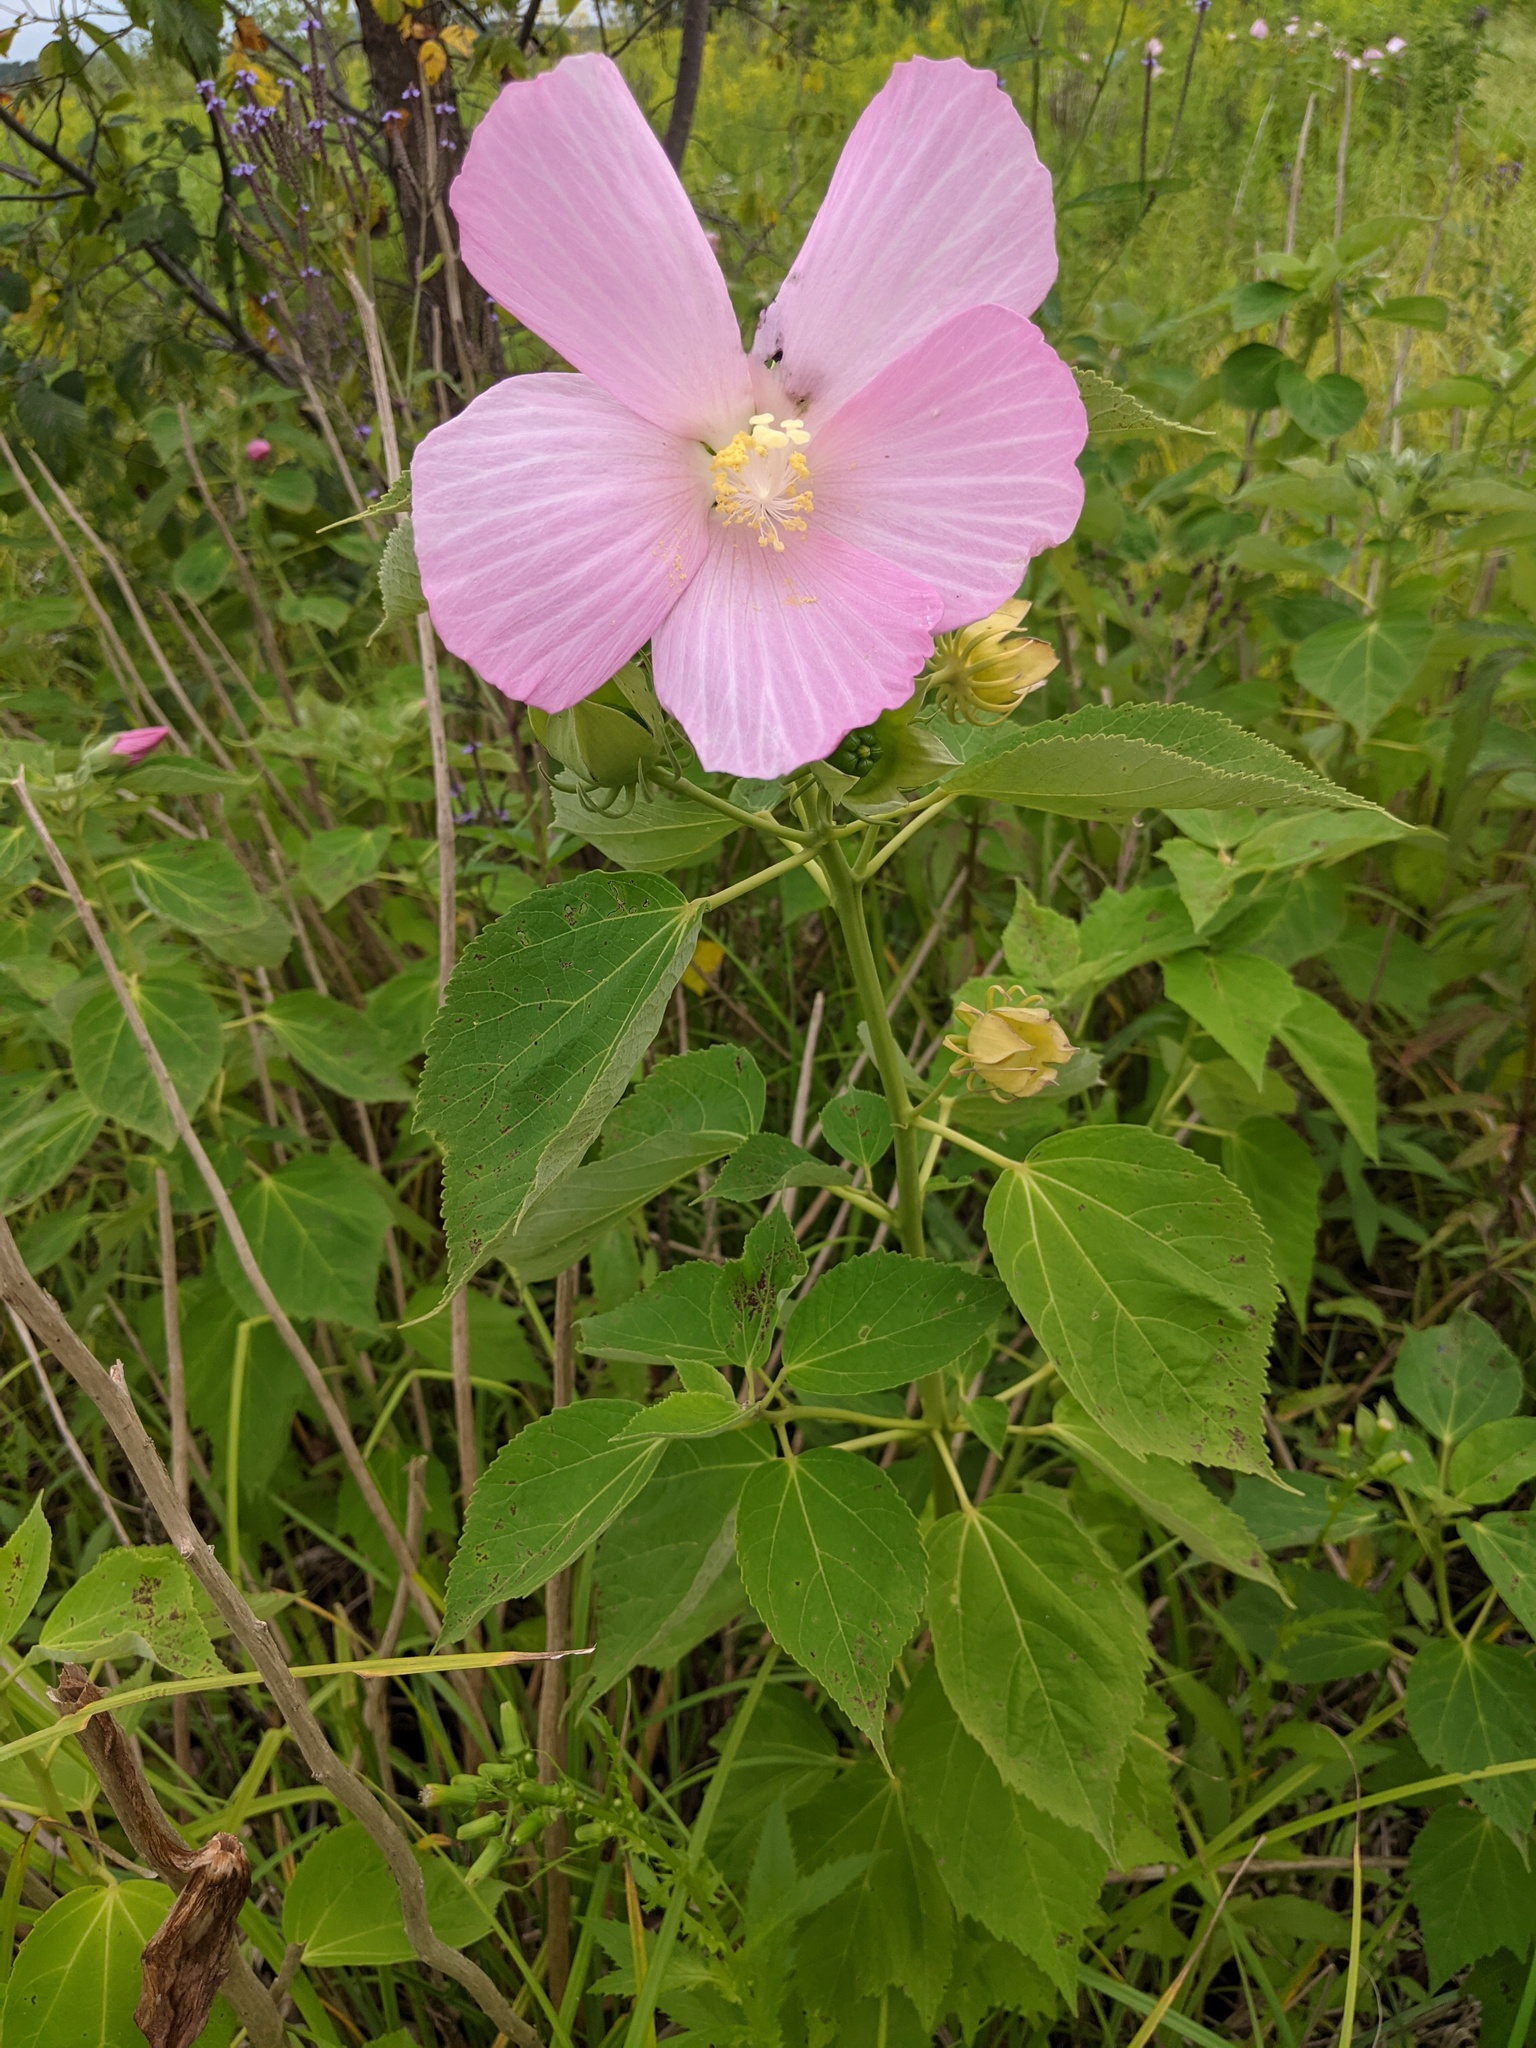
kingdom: Plantae
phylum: Tracheophyta
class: Magnoliopsida
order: Malvales
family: Malvaceae
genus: Hibiscus
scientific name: Hibiscus moscheutos
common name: Common rose-mallow
